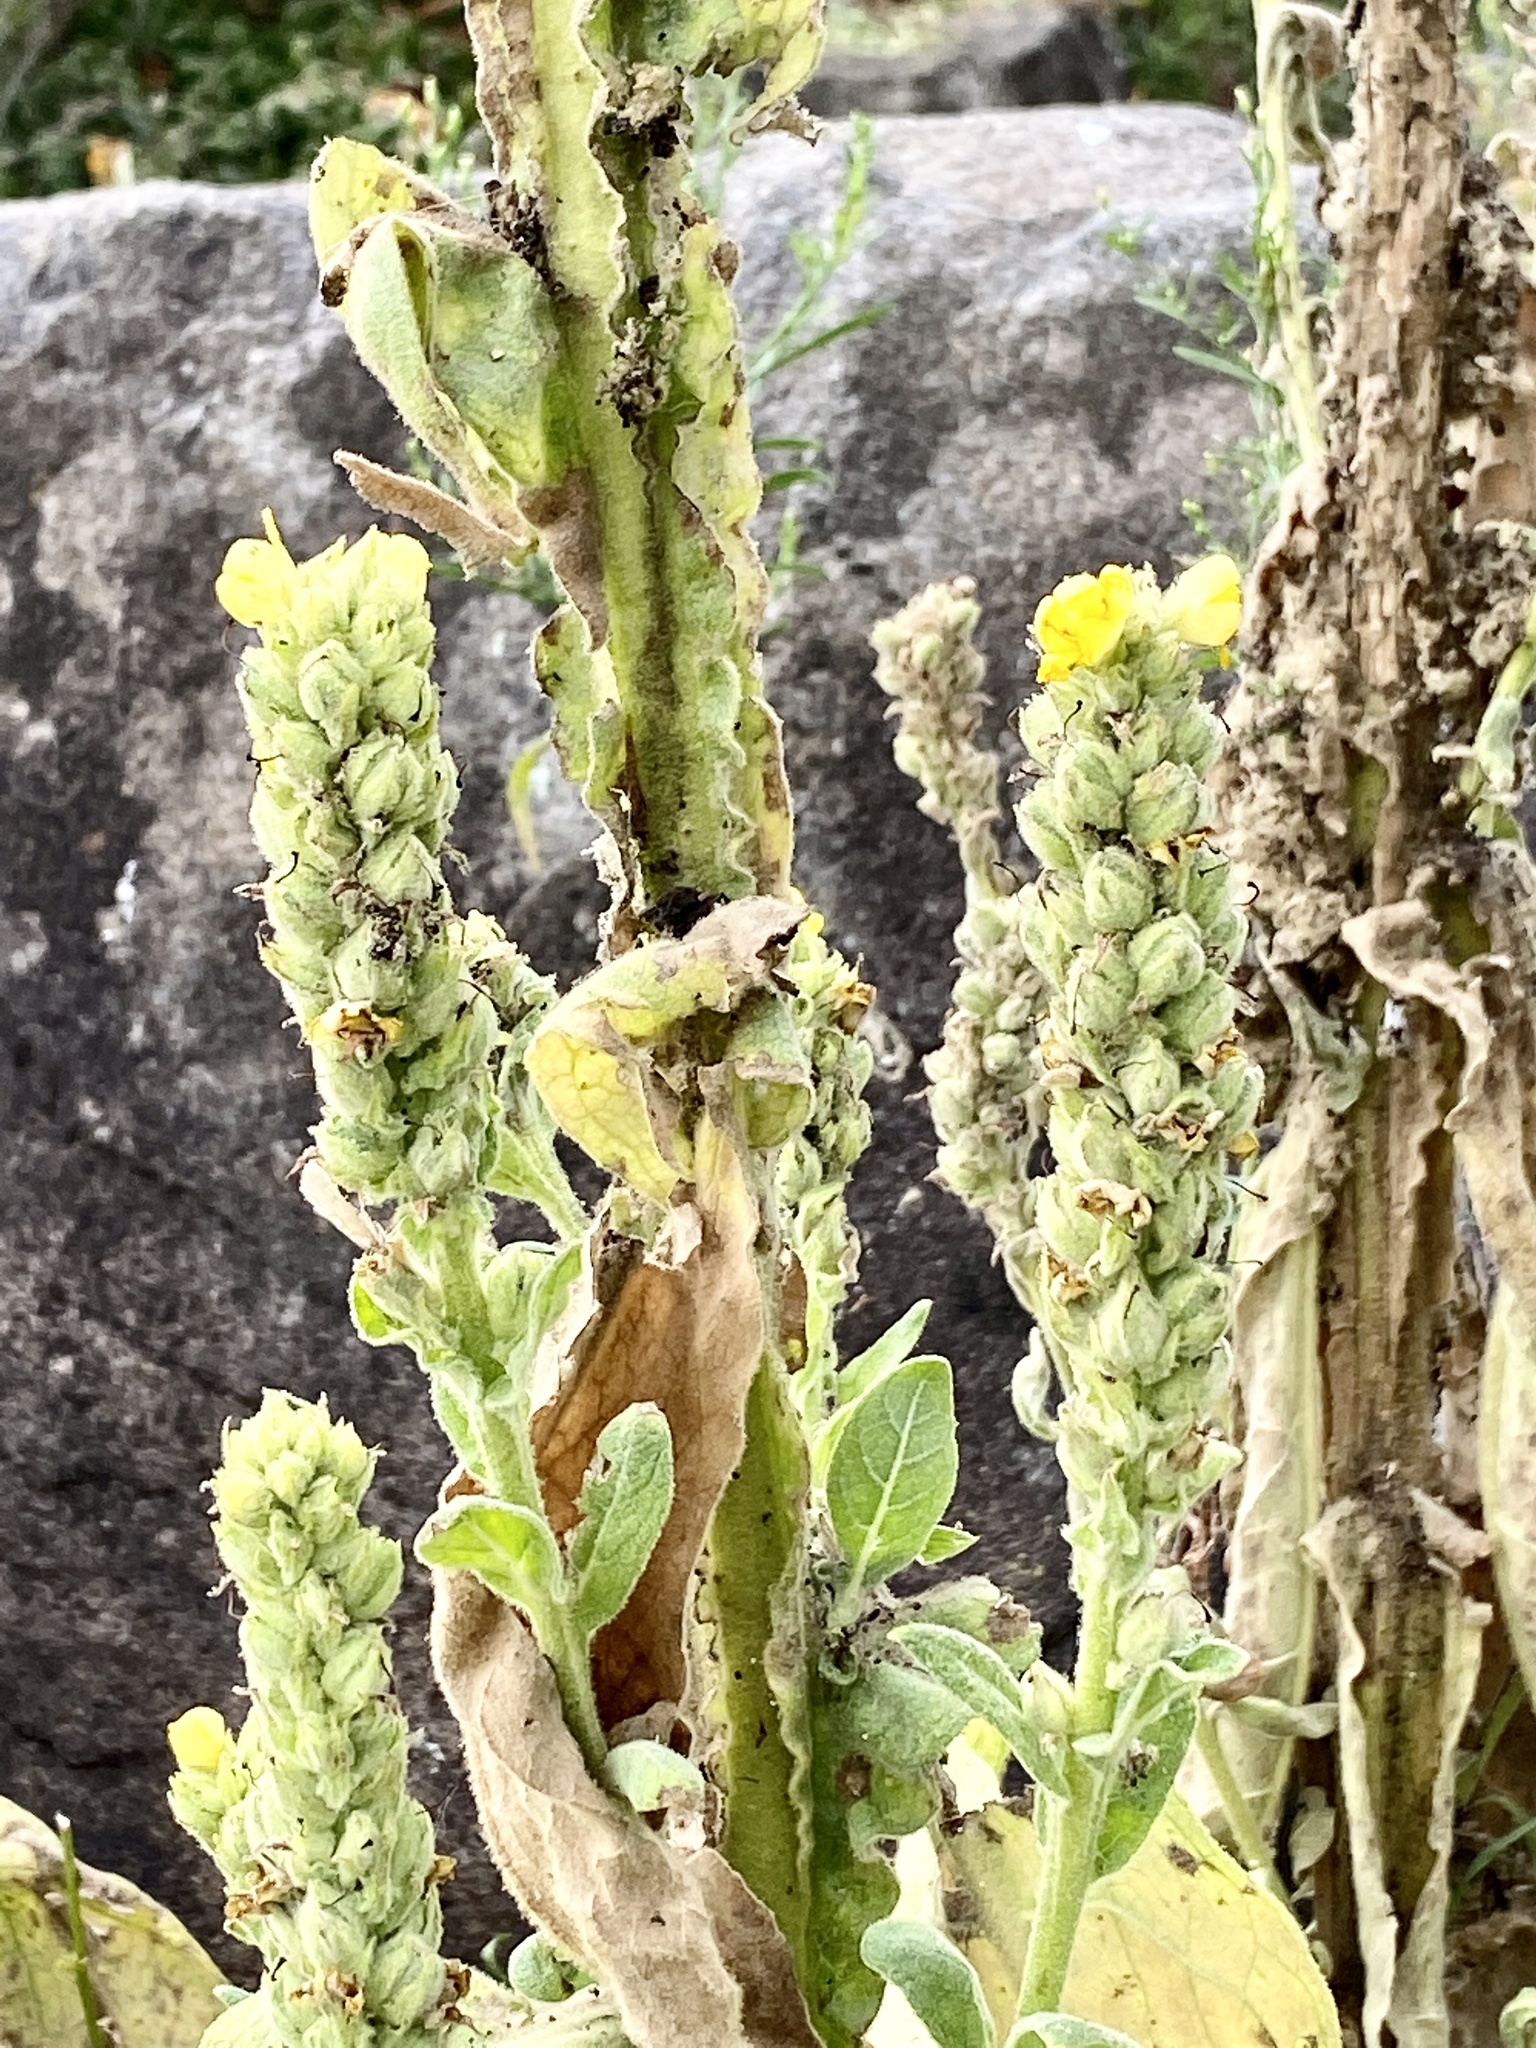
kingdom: Plantae
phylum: Tracheophyta
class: Magnoliopsida
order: Lamiales
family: Scrophulariaceae
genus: Verbascum
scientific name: Verbascum thapsus
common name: Common mullein
